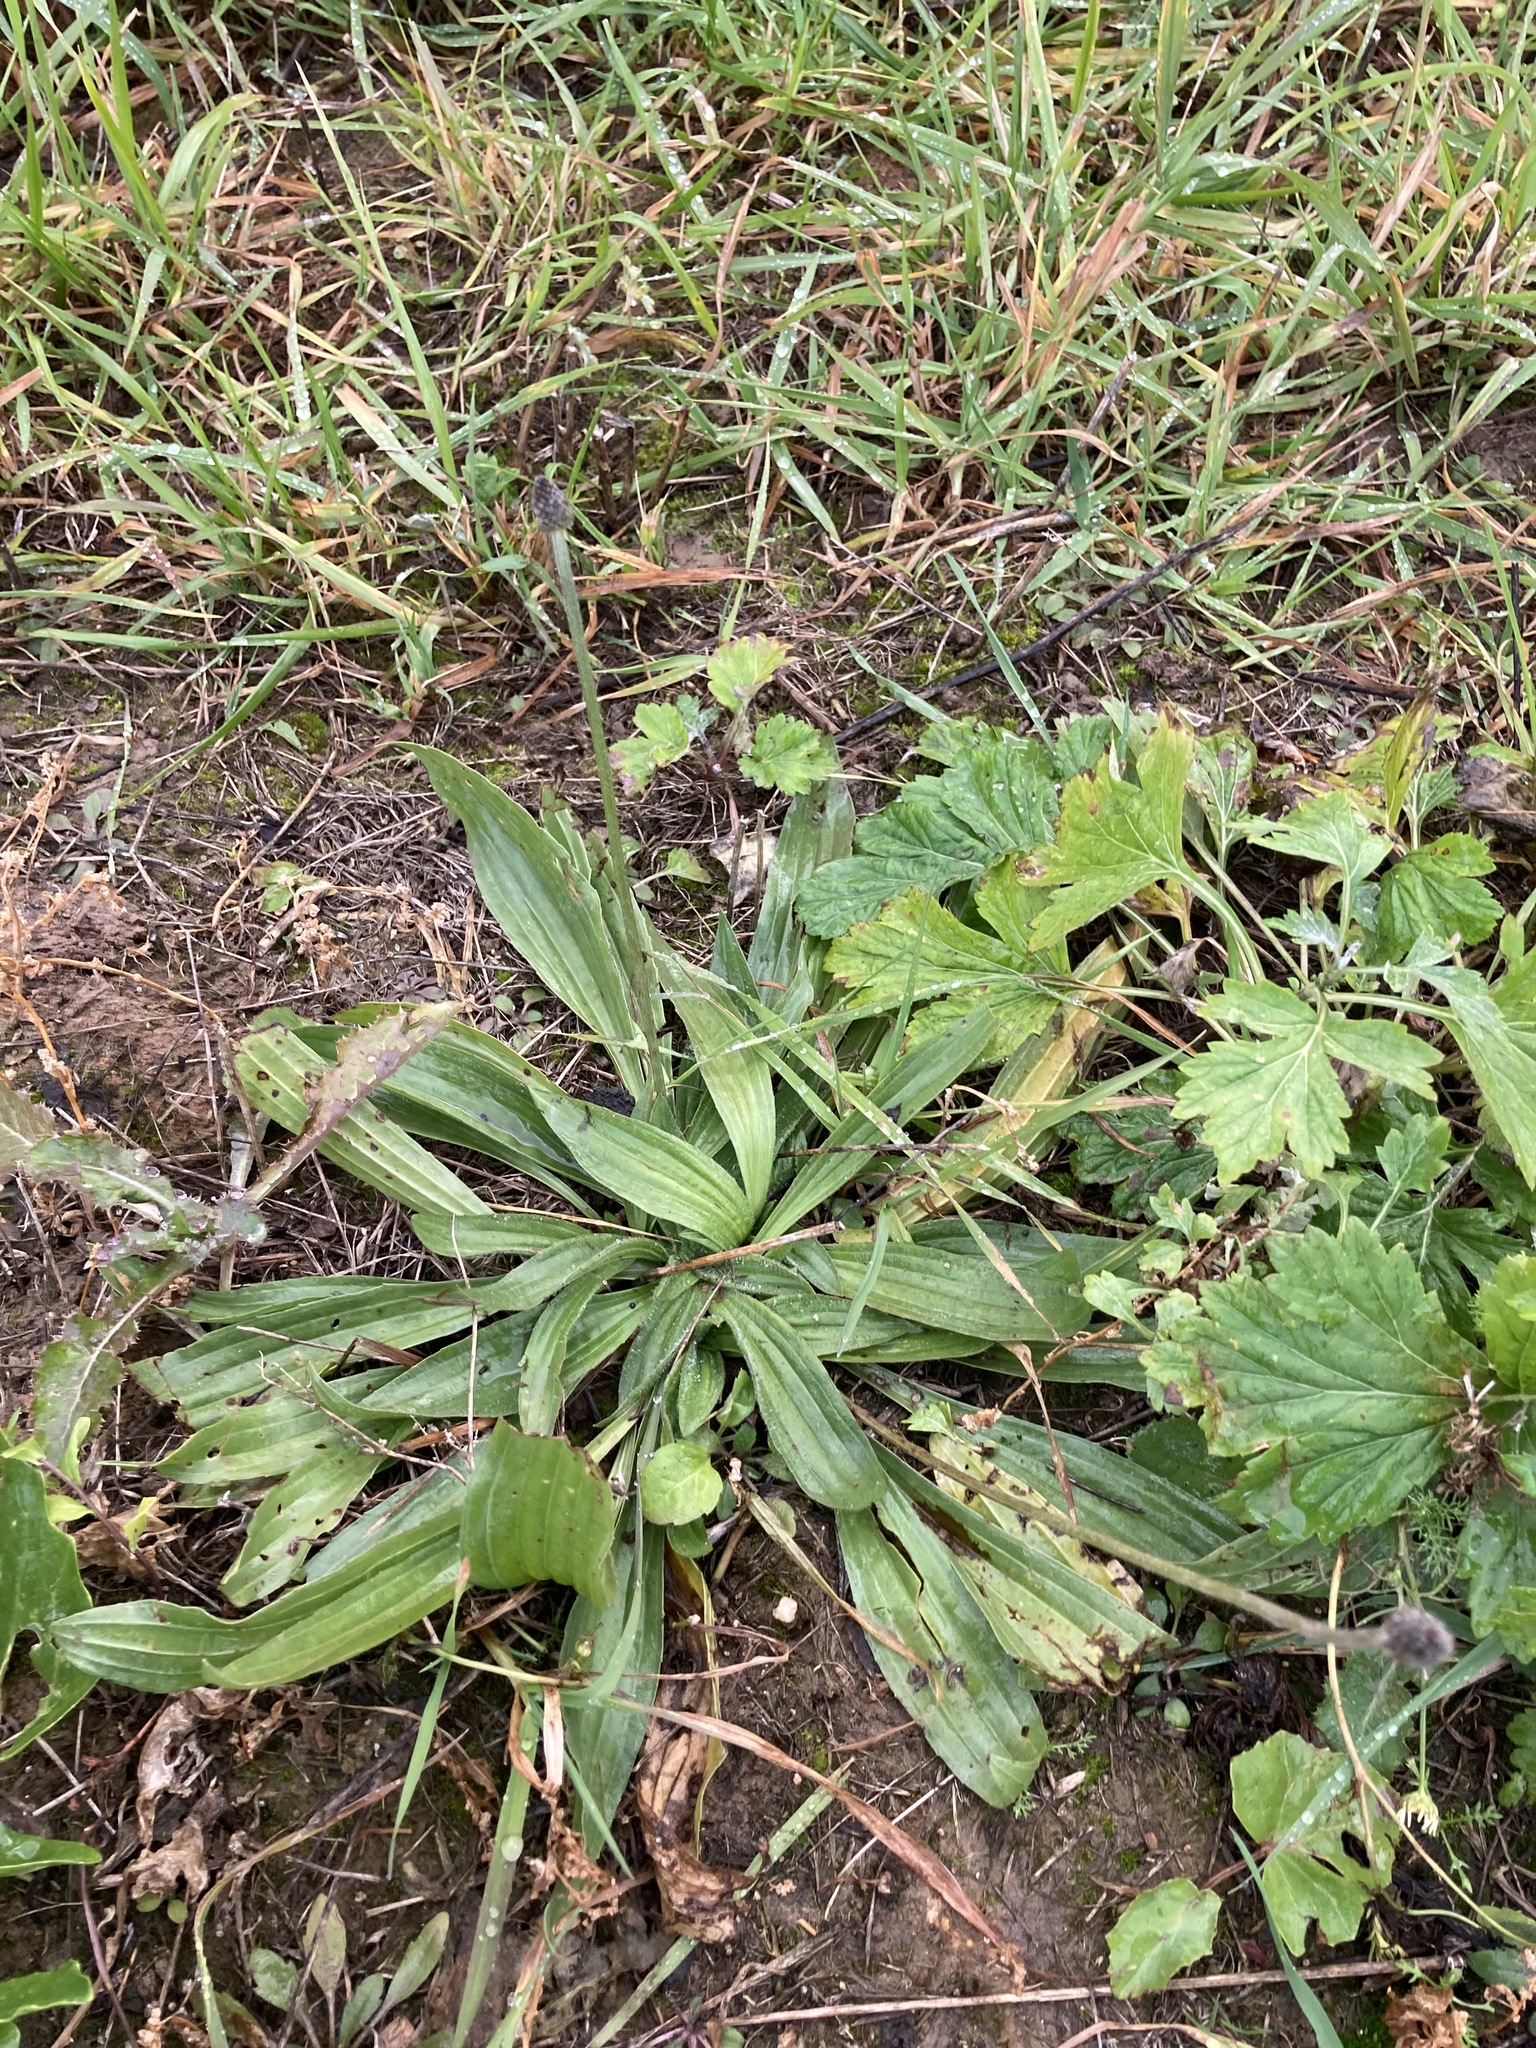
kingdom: Plantae
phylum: Tracheophyta
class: Magnoliopsida
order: Lamiales
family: Plantaginaceae
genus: Plantago
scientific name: Plantago lanceolata
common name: Ribwort plantain
